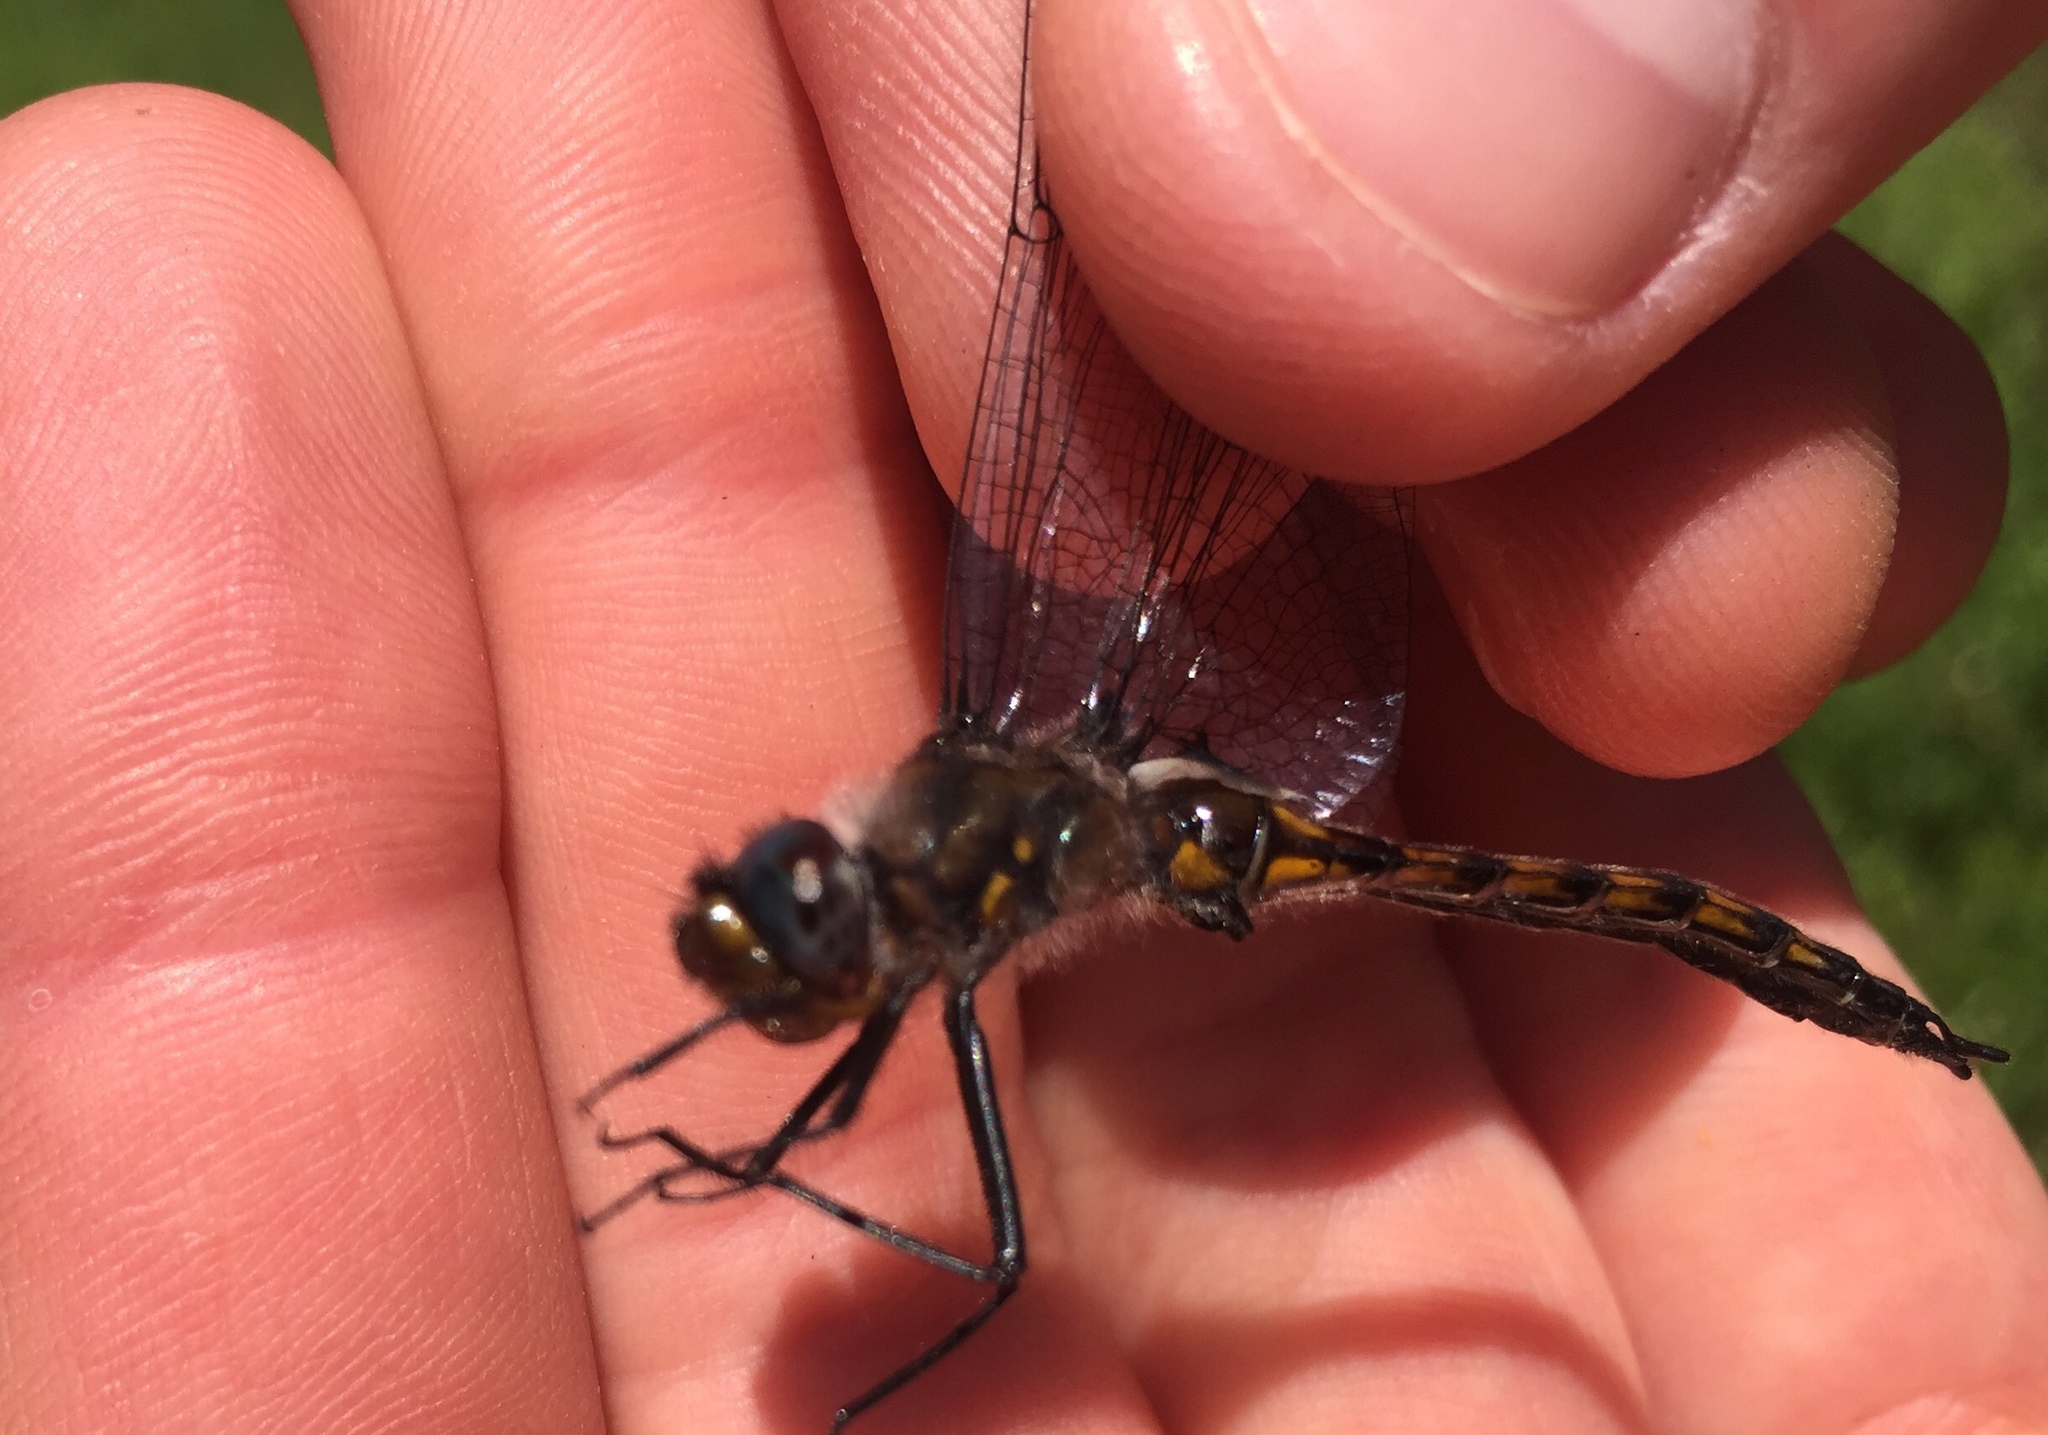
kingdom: Animalia
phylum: Arthropoda
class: Insecta
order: Odonata
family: Corduliidae
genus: Epitheca
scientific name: Epitheca
